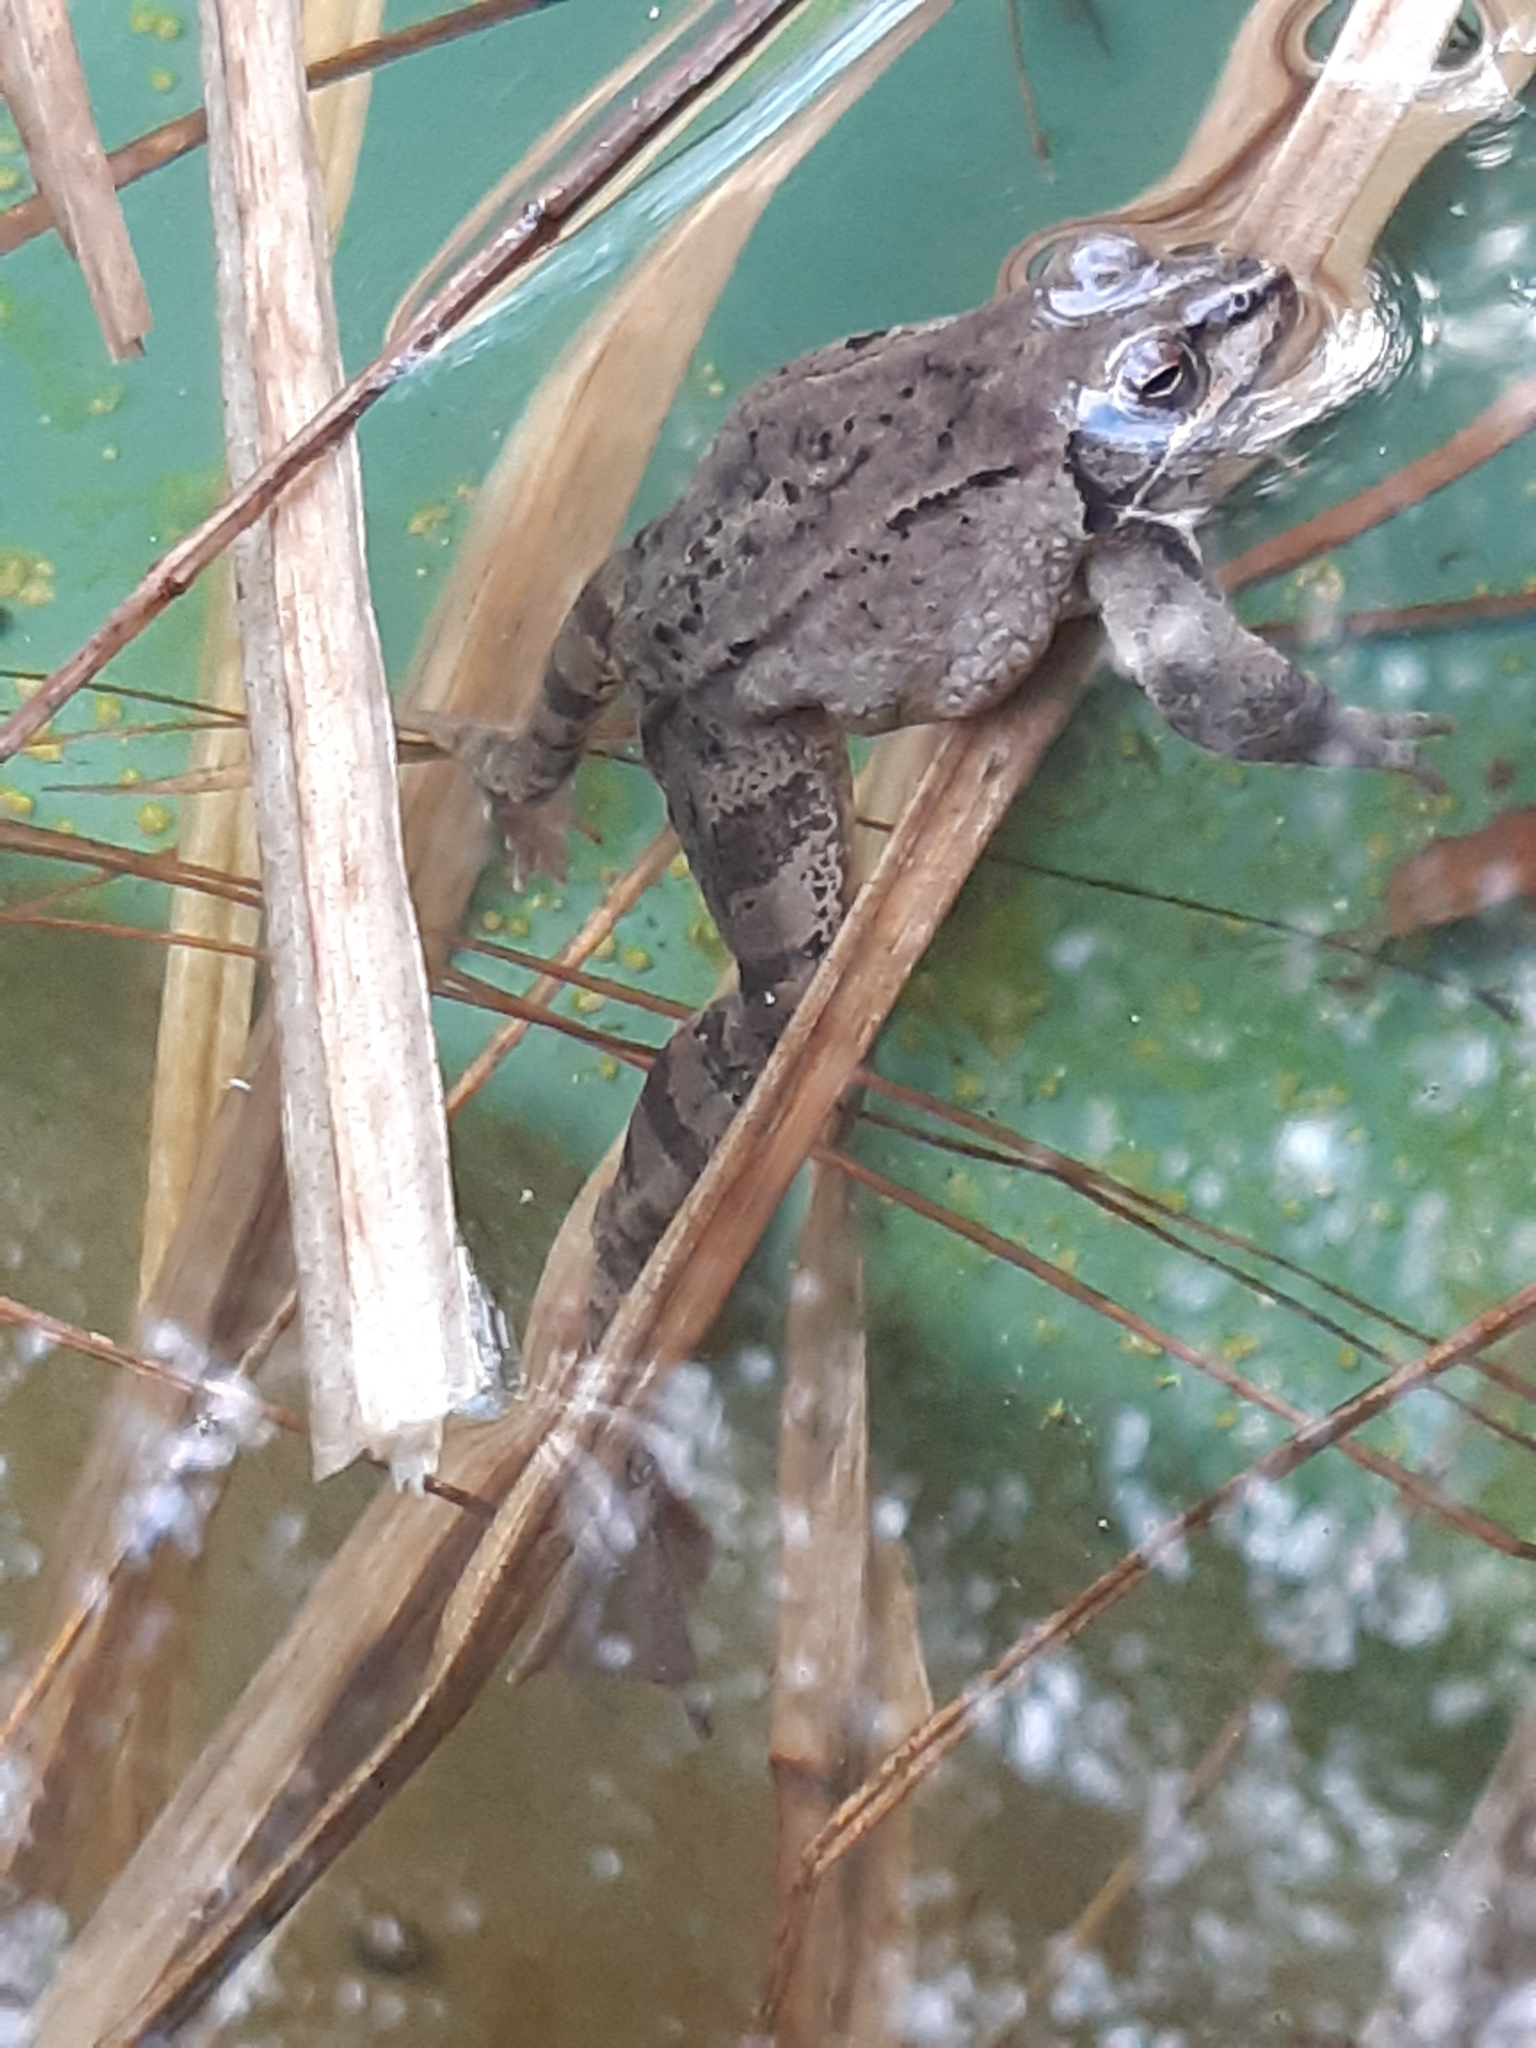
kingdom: Animalia
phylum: Chordata
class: Amphibia
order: Anura
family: Ranidae
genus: Rana
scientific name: Rana dalmatina
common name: Agile frog
